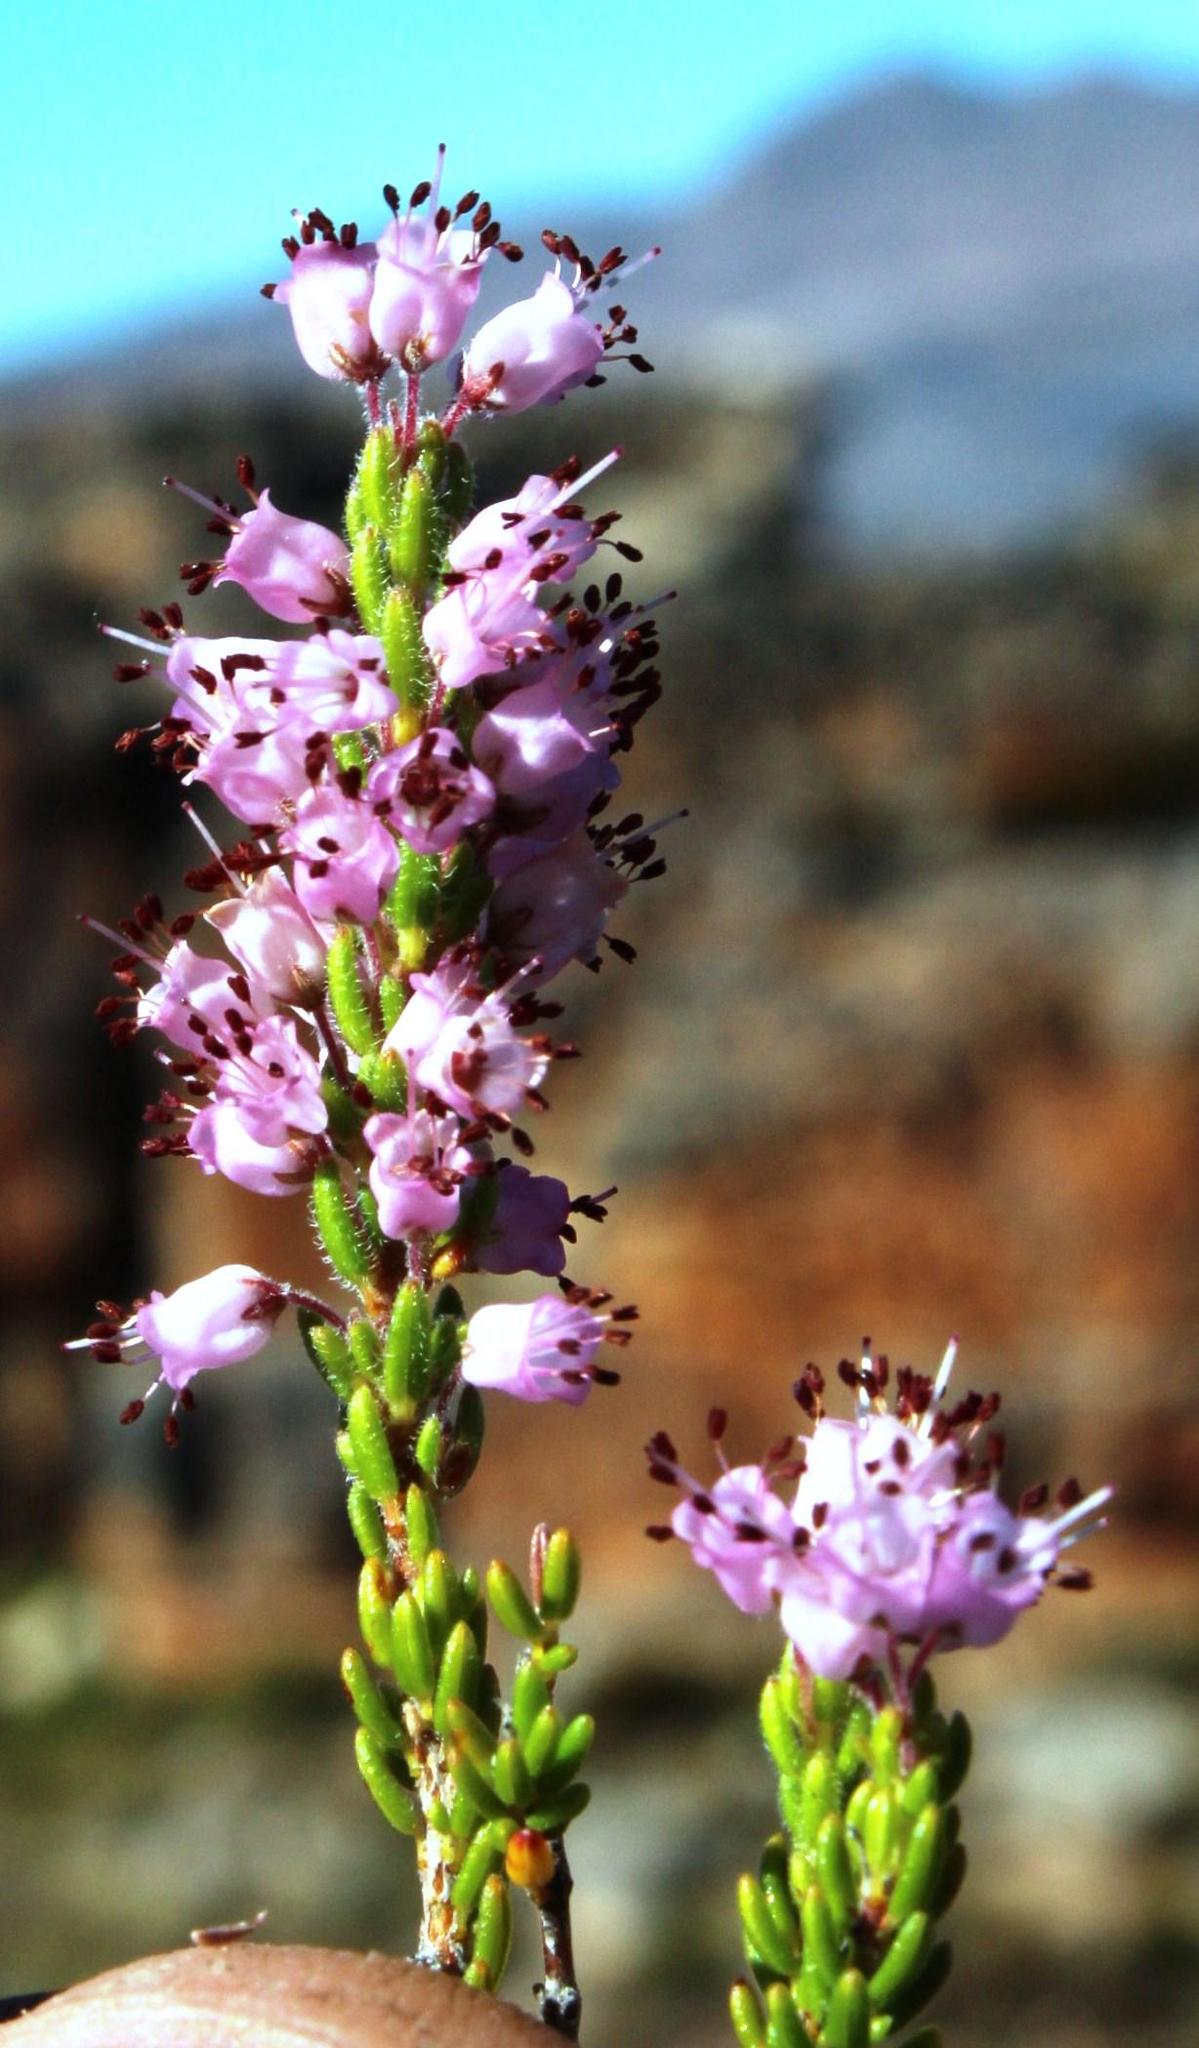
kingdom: Plantae
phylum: Tracheophyta
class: Magnoliopsida
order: Ericales
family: Ericaceae
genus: Erica
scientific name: Erica nudiflora
